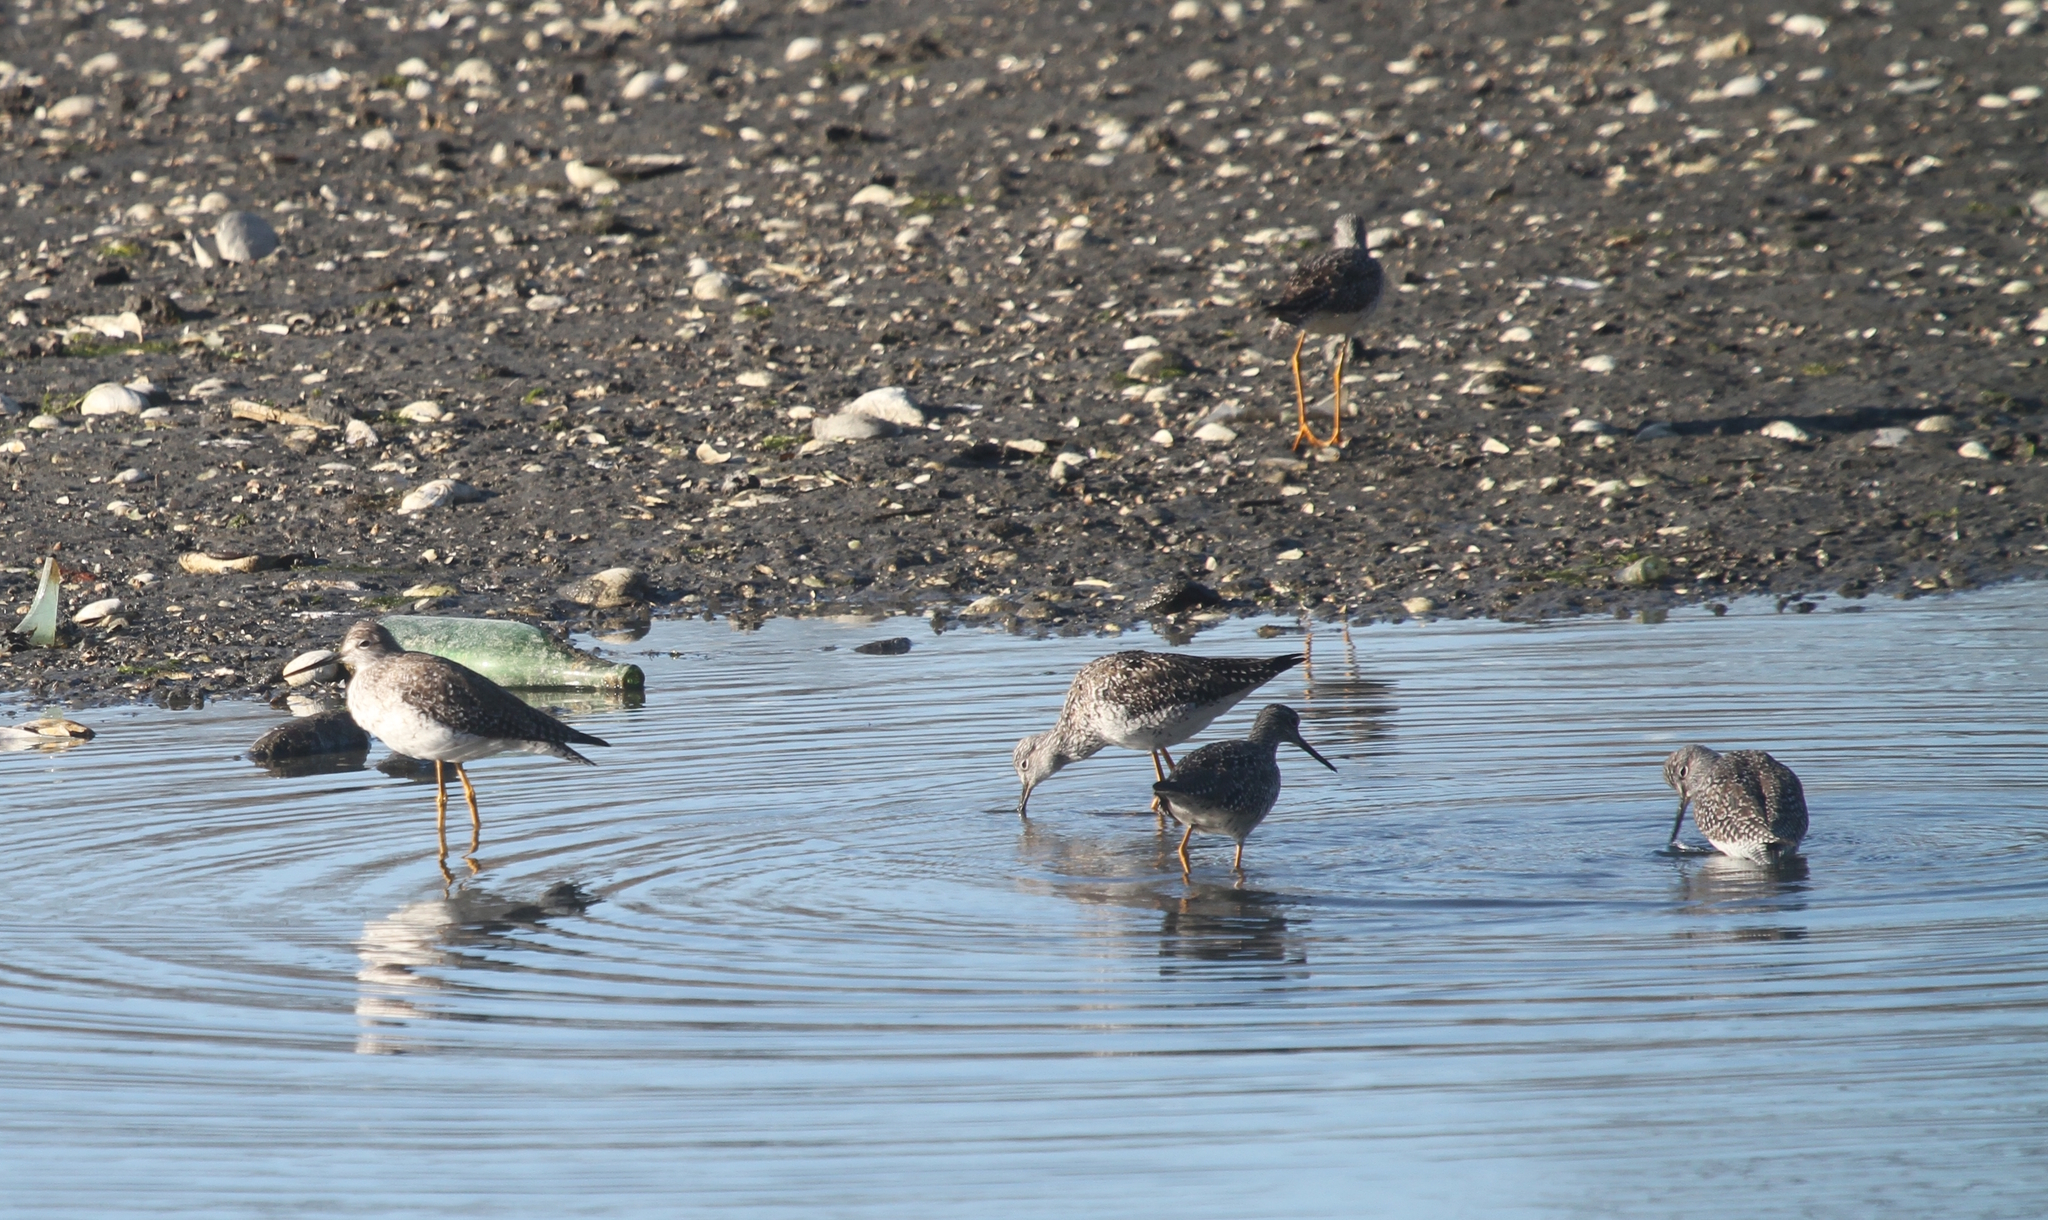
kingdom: Animalia
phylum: Chordata
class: Aves
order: Charadriiformes
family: Scolopacidae
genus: Tringa
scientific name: Tringa melanoleuca
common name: Greater yellowlegs
